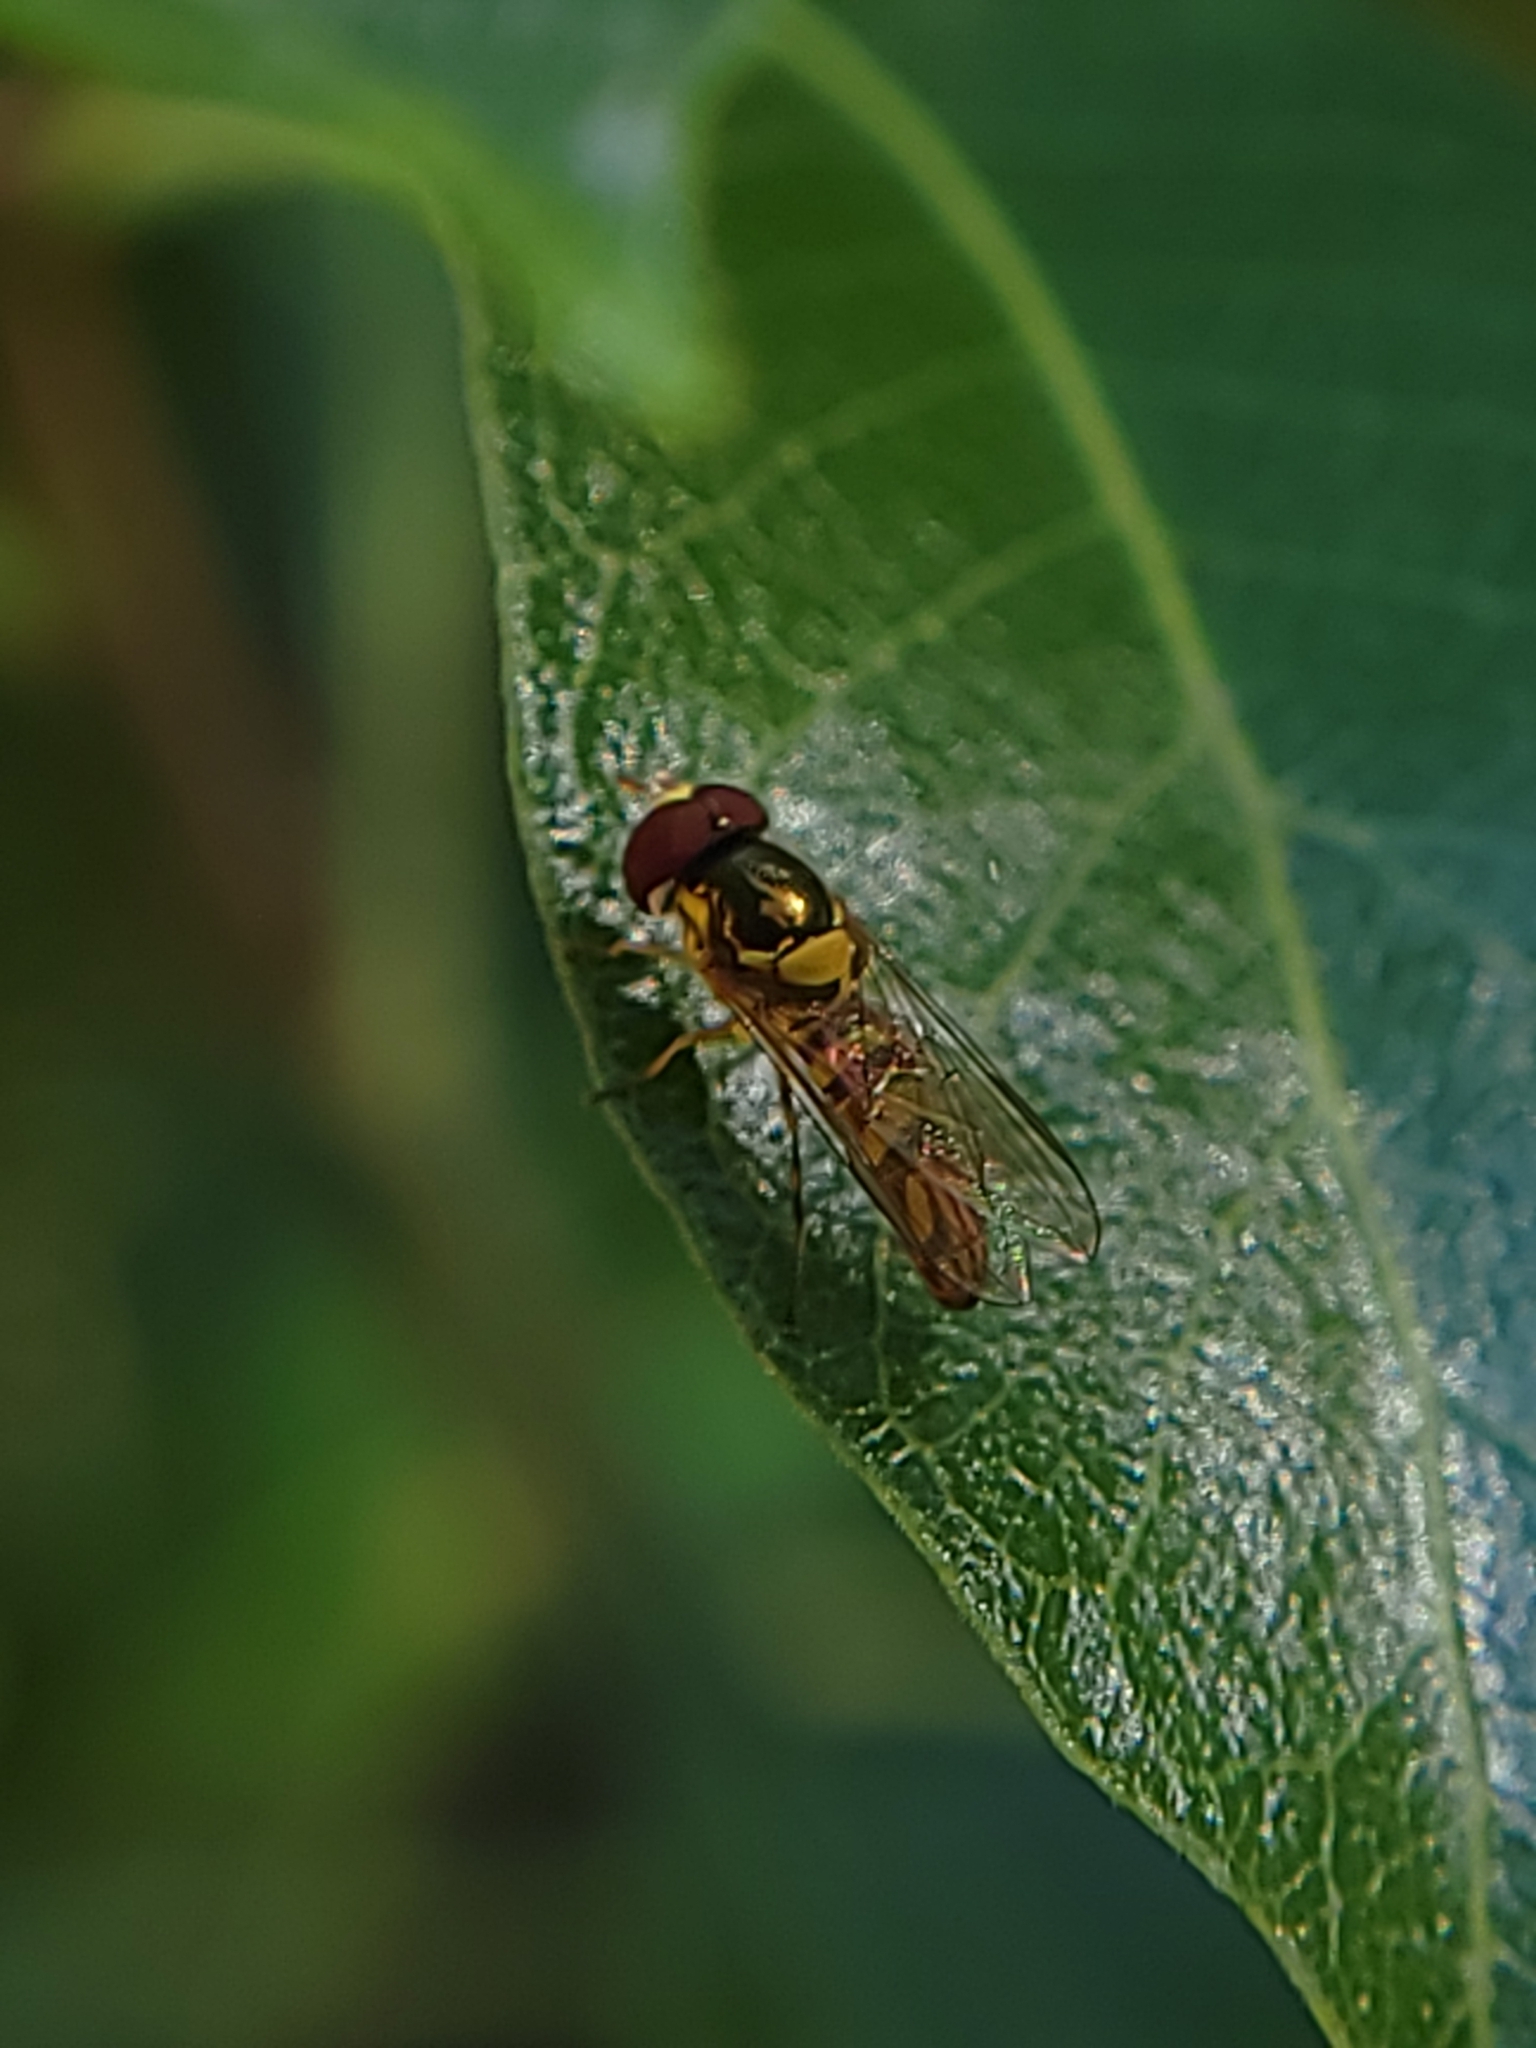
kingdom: Animalia
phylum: Arthropoda
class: Insecta
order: Diptera
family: Syrphidae
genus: Allograpta
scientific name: Allograpta obliqua
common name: Common oblique syrphid
